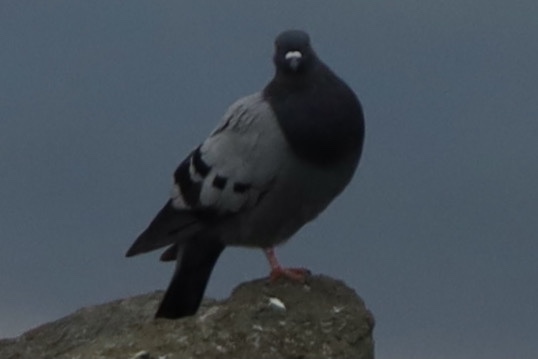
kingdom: Animalia
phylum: Chordata
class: Aves
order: Columbiformes
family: Columbidae
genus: Columba
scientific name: Columba livia
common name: Rock pigeon
